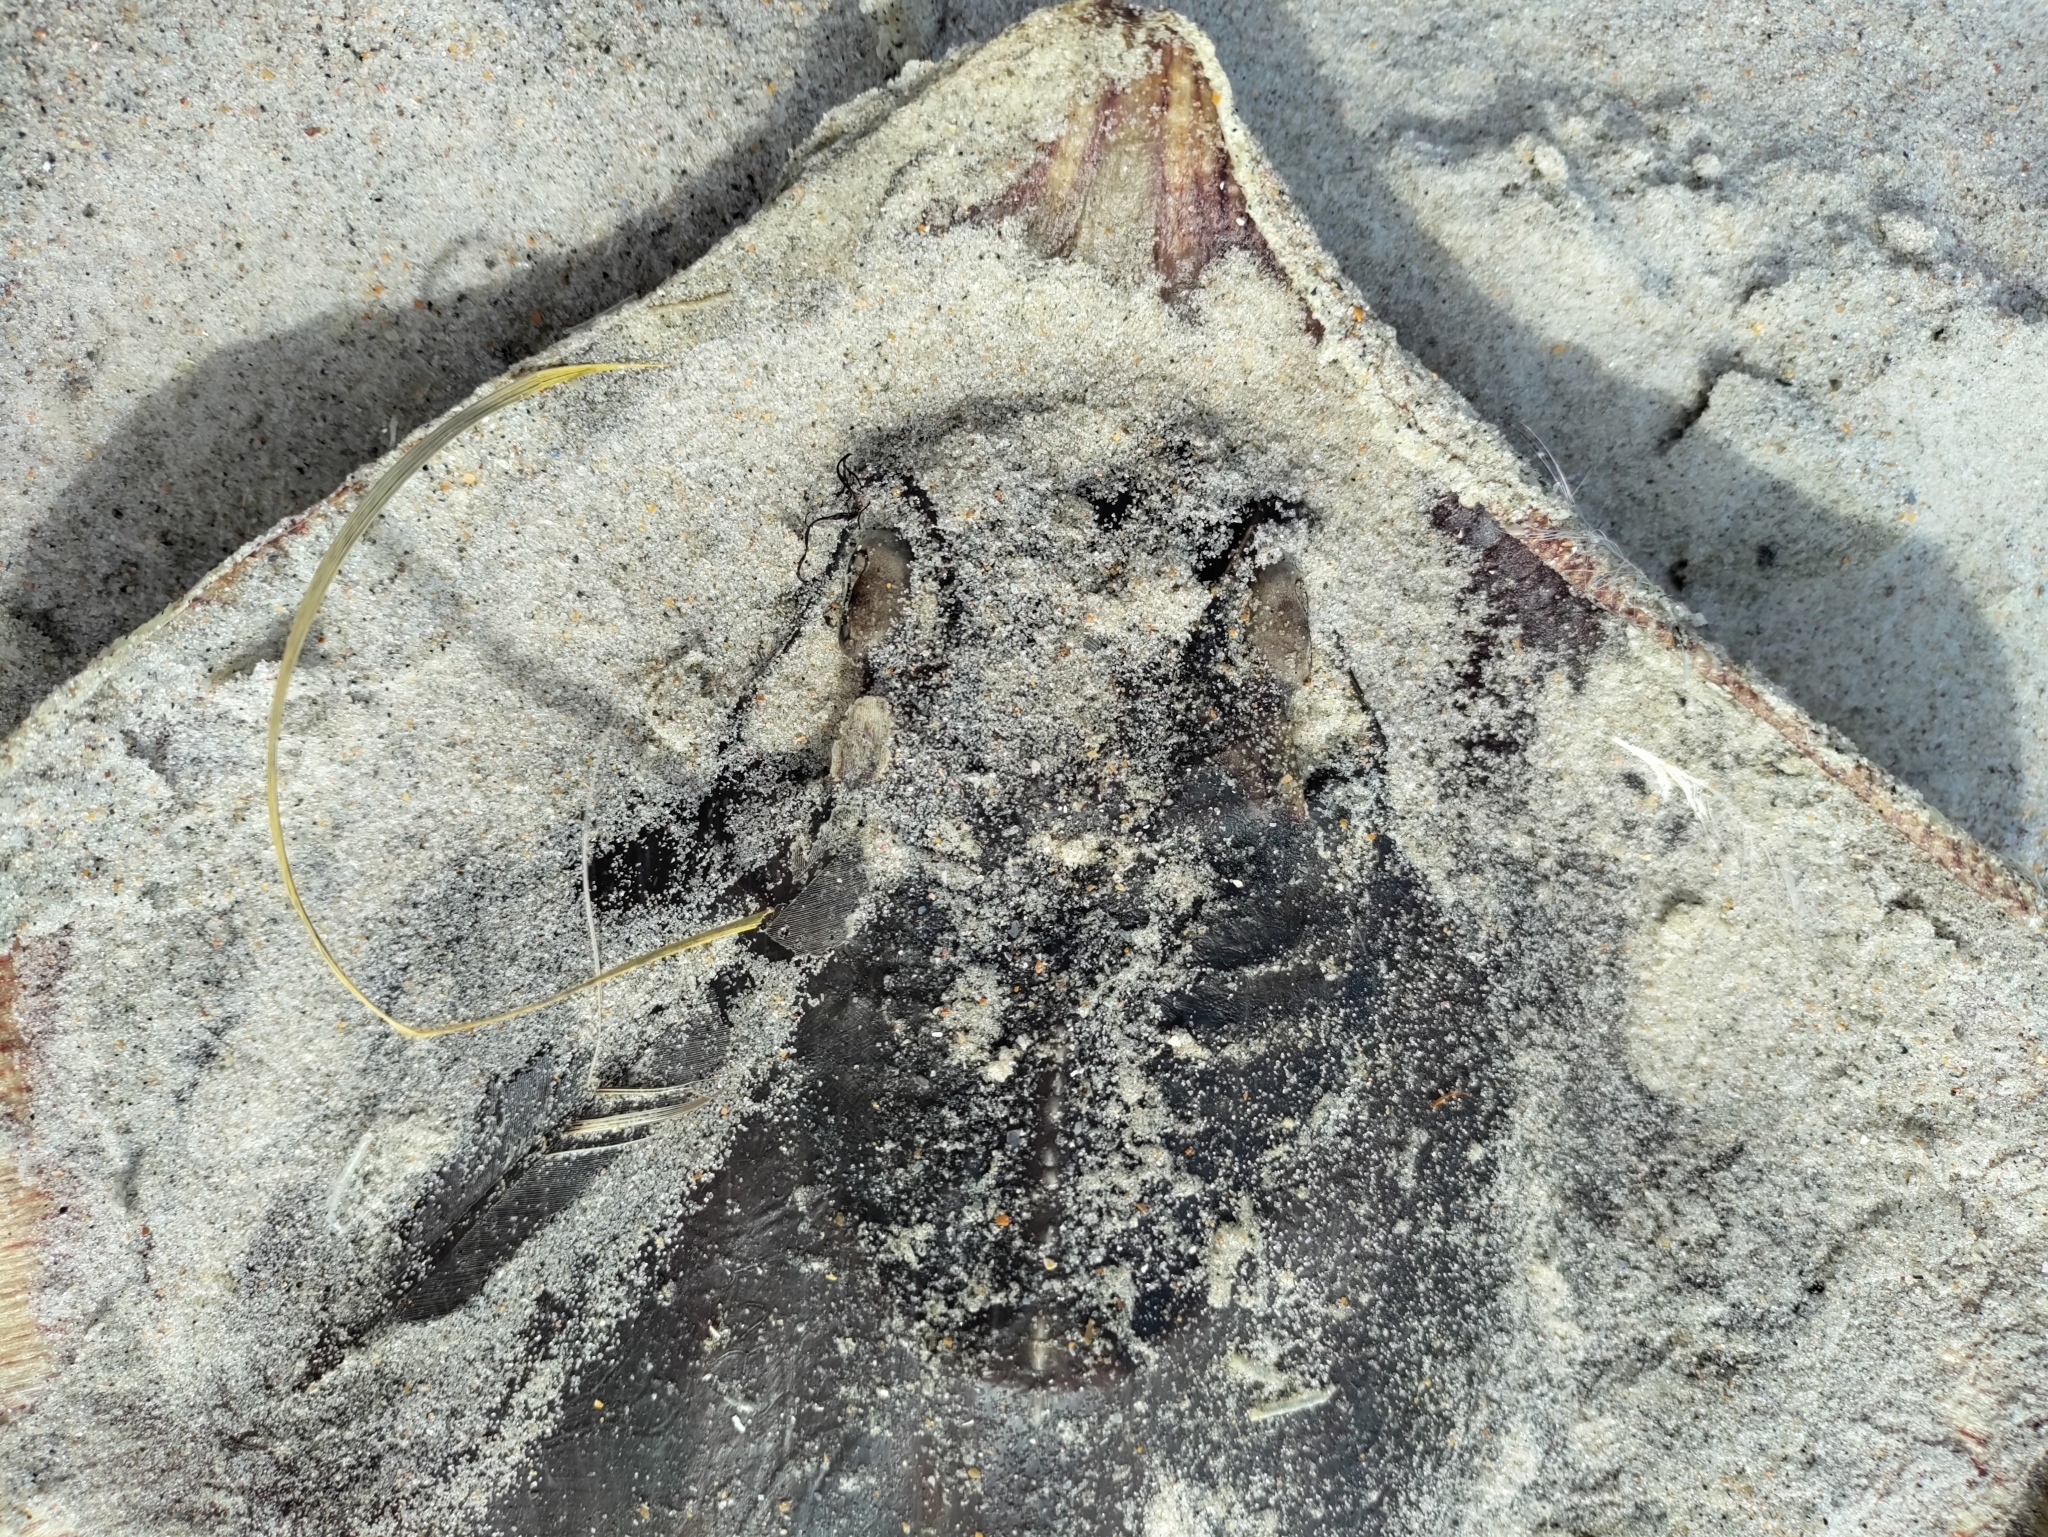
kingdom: Animalia
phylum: Chordata
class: Elasmobranchii
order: Myliobatiformes
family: Dasyatidae
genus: Hypanus
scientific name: Hypanus sabinus
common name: Atlantic stingray
